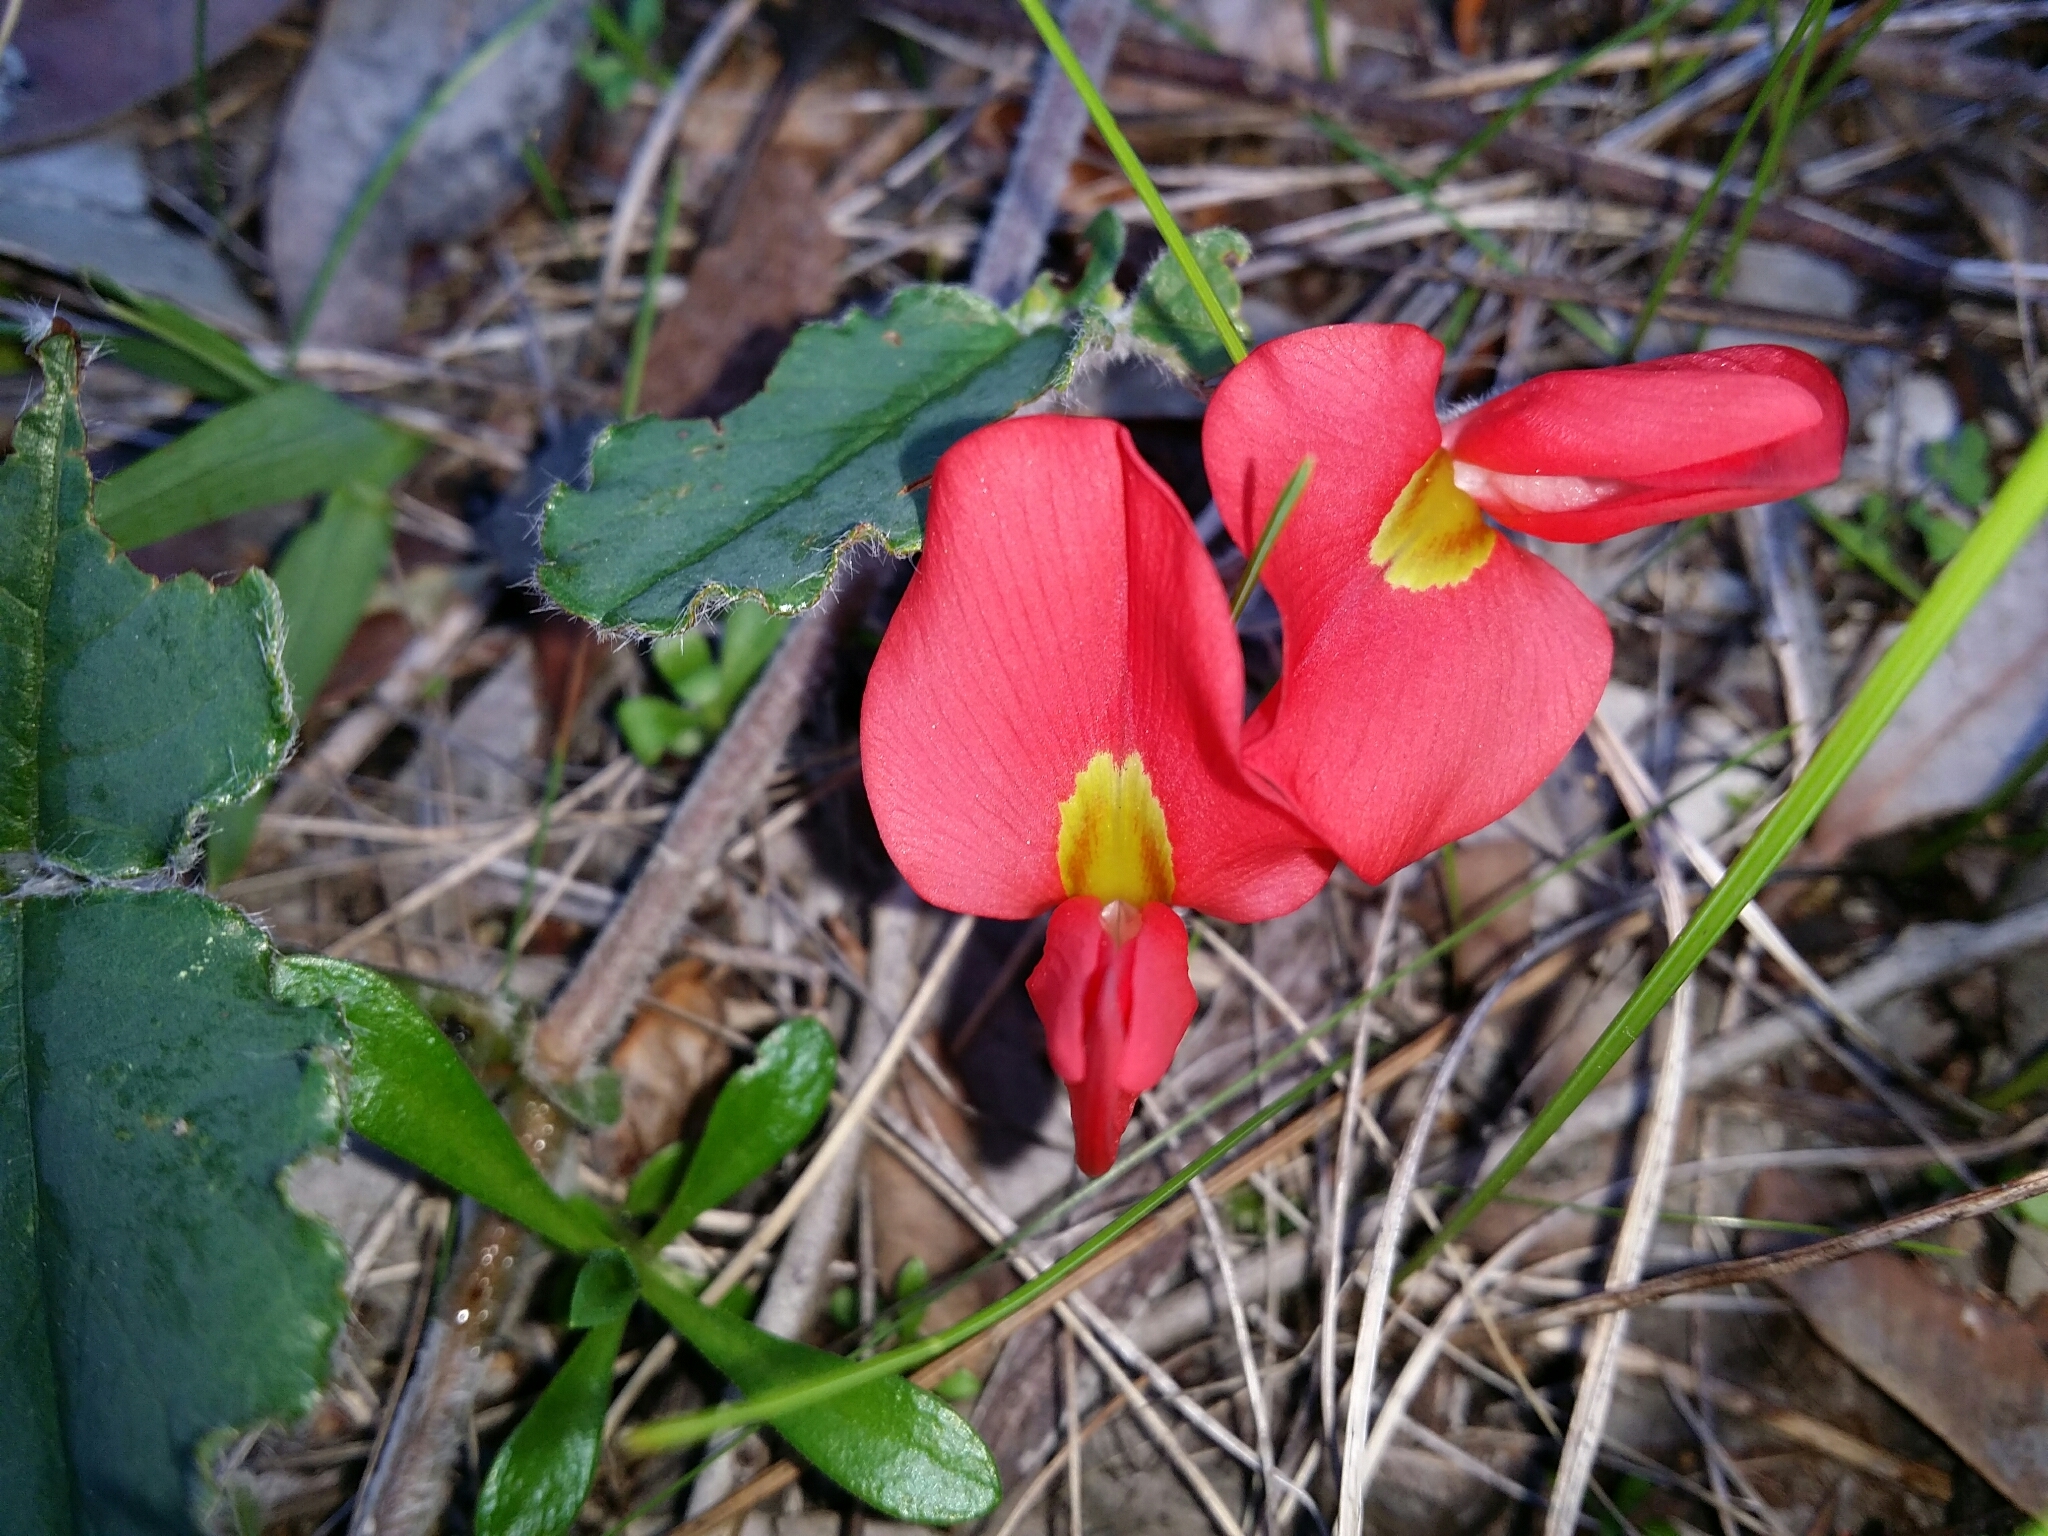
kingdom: Plantae
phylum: Tracheophyta
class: Magnoliopsida
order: Fabales
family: Fabaceae
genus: Kennedia
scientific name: Kennedia prostrata
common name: Running-postman
